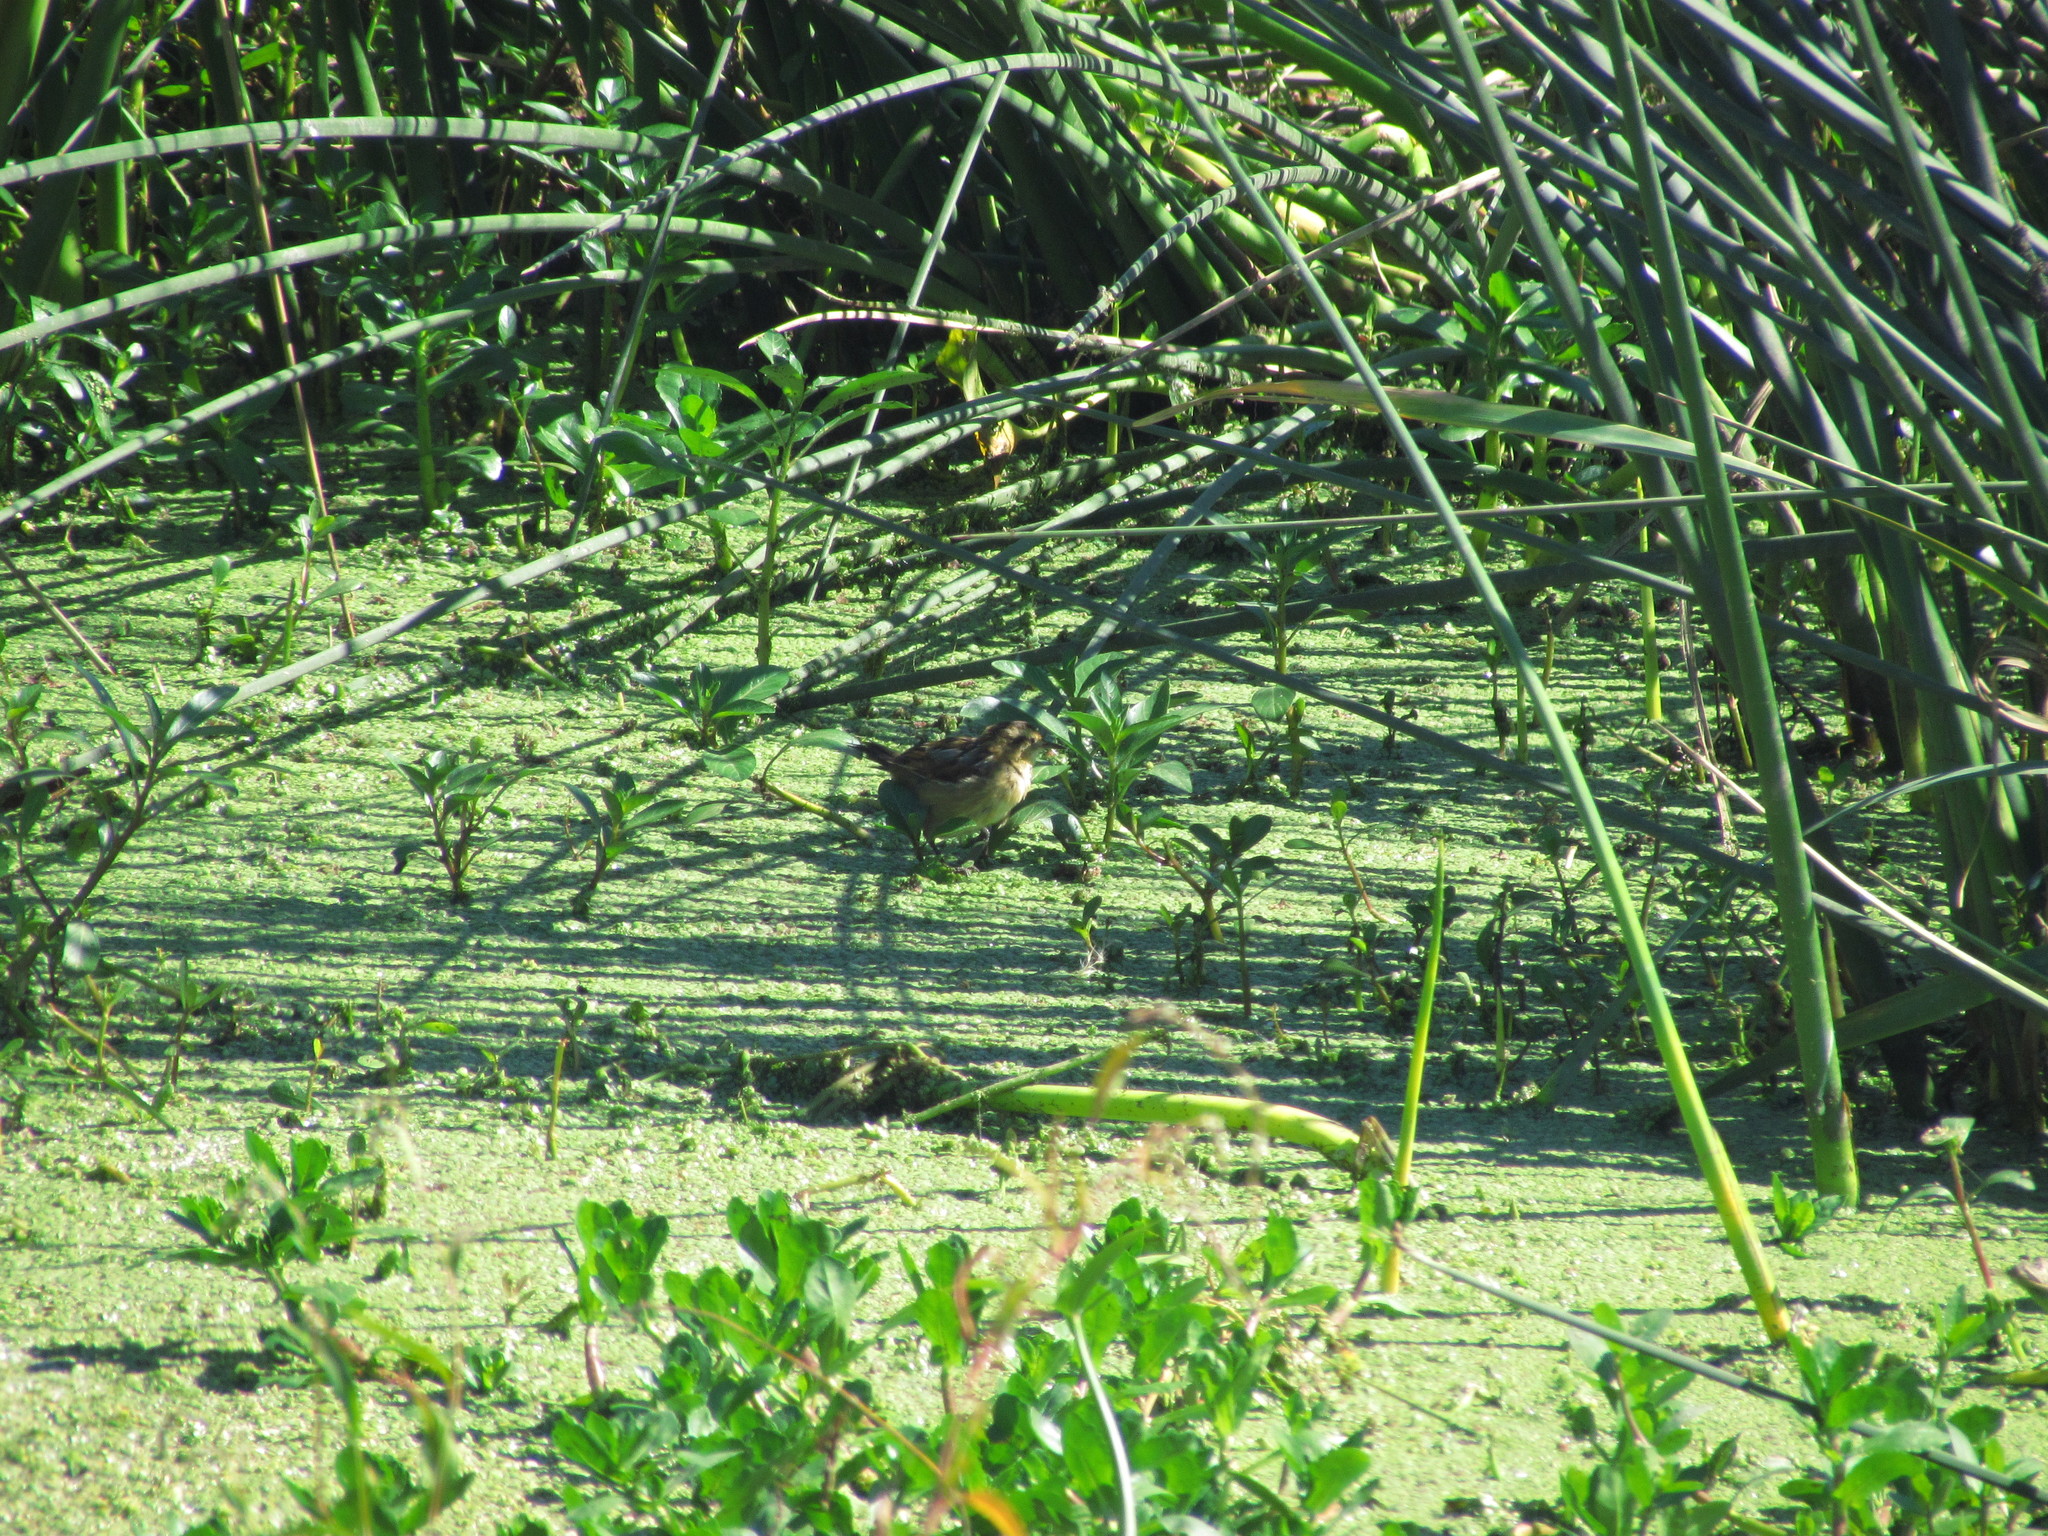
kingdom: Animalia
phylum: Chordata
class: Aves
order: Passeriformes
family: Furnariidae
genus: Phleocryptes
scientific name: Phleocryptes melanops
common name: Wren-like rushbird
